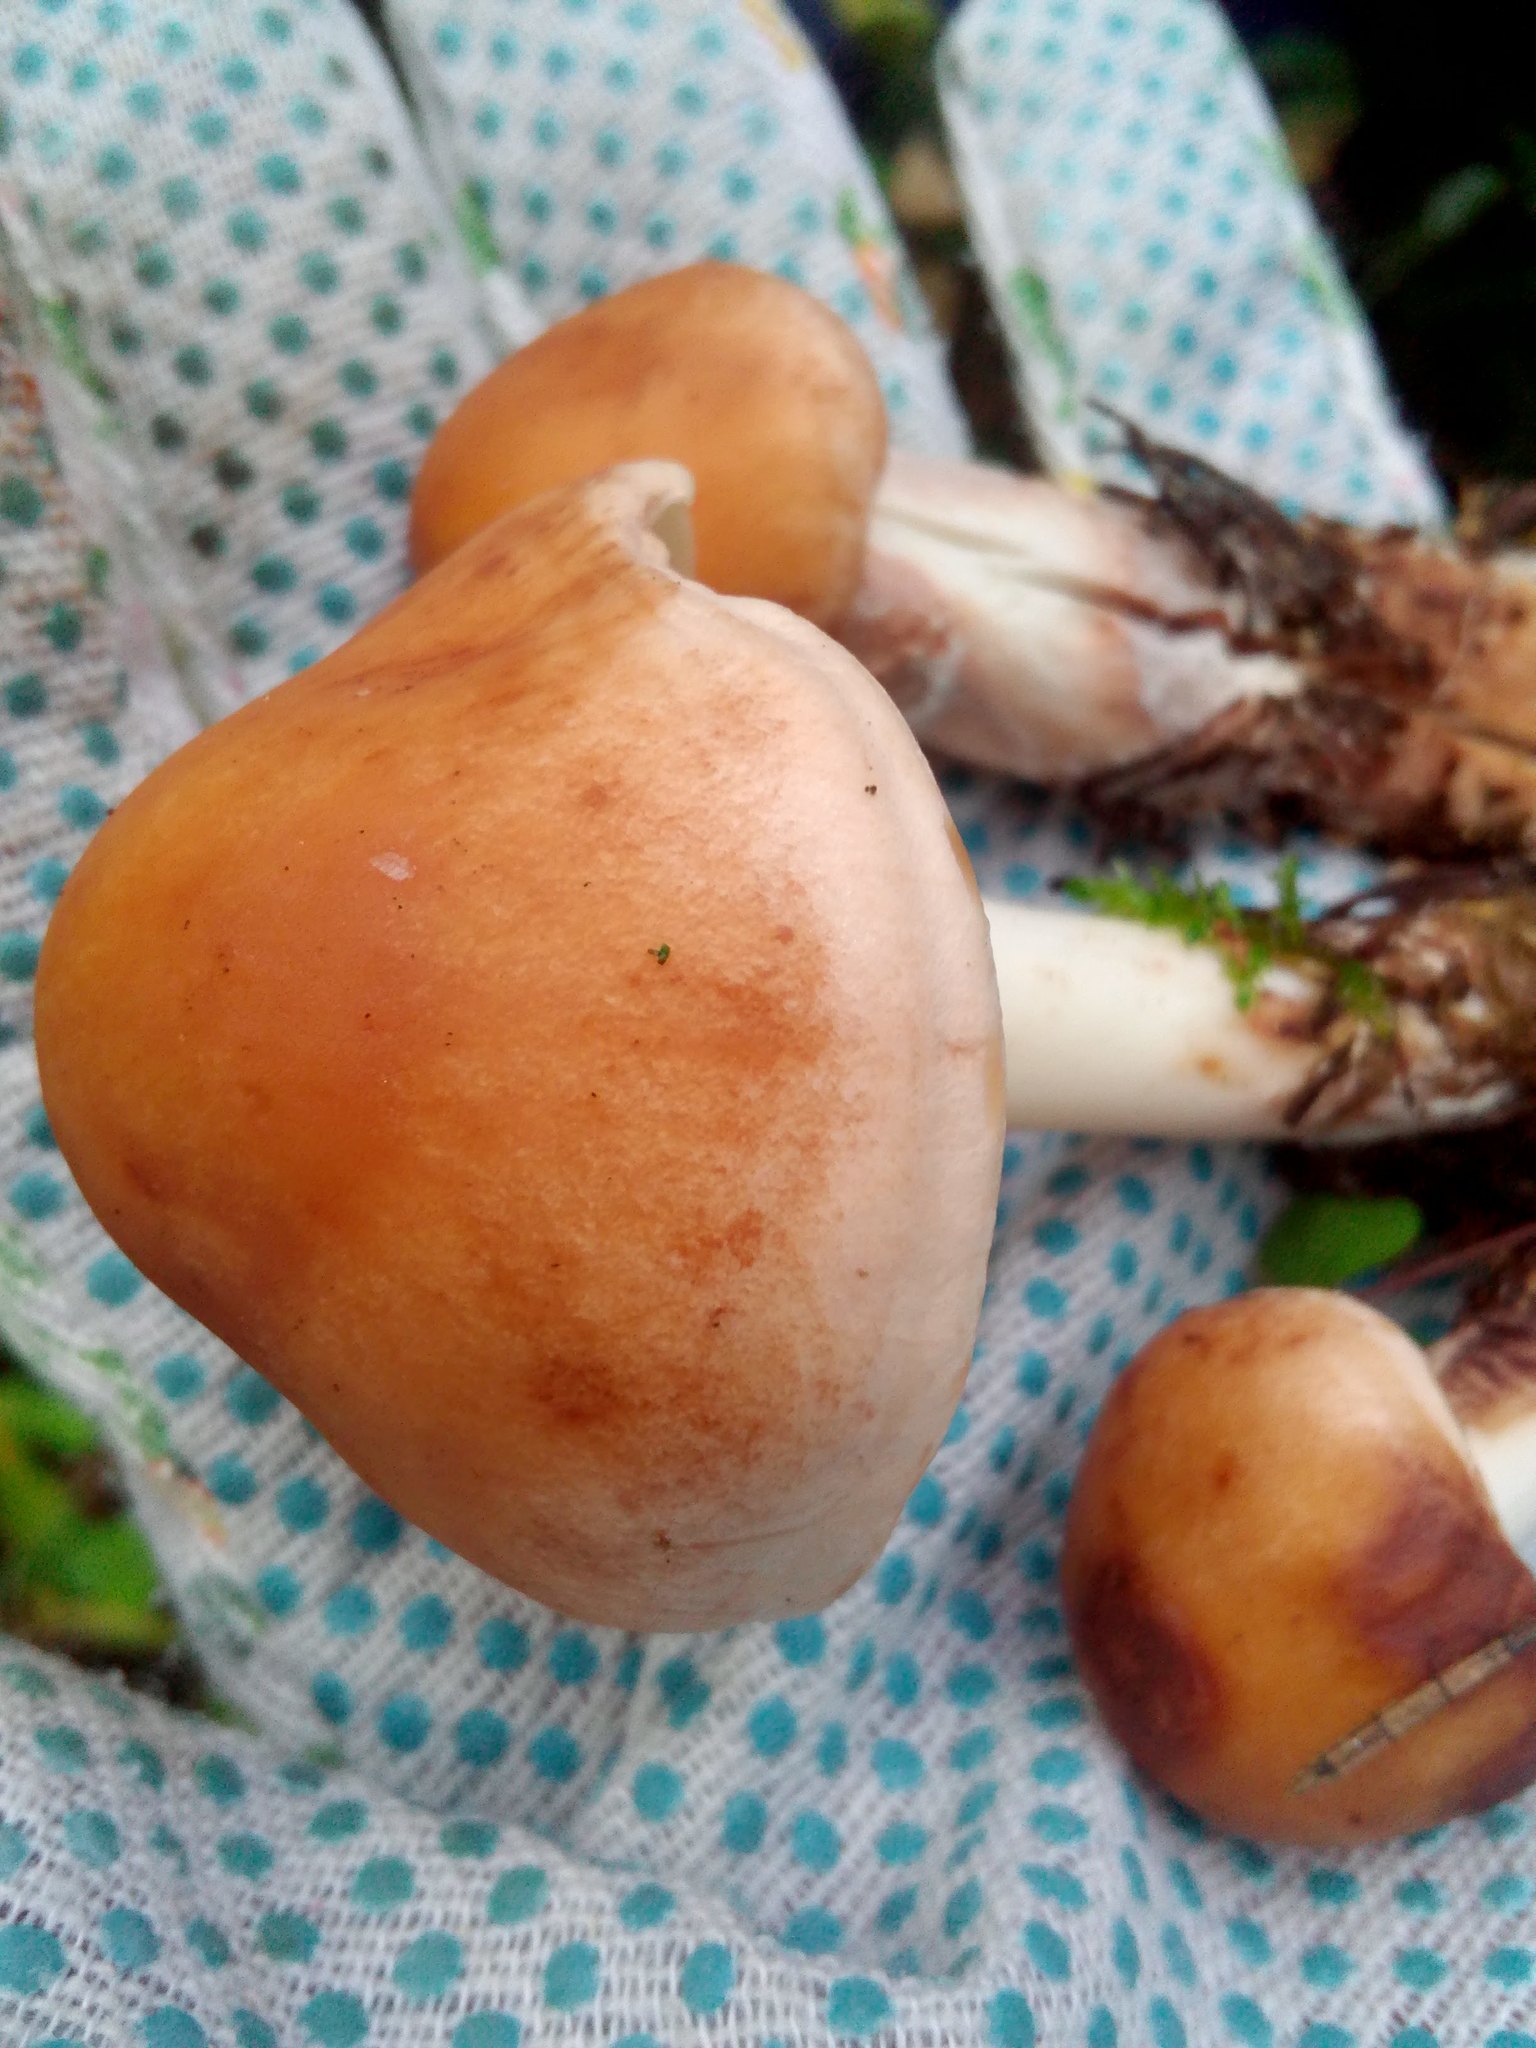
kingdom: Fungi
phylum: Basidiomycota
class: Agaricomycetes
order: Agaricales
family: Omphalotaceae
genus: Rhodocollybia
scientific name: Rhodocollybia maculata
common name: Spotted tough-shank
